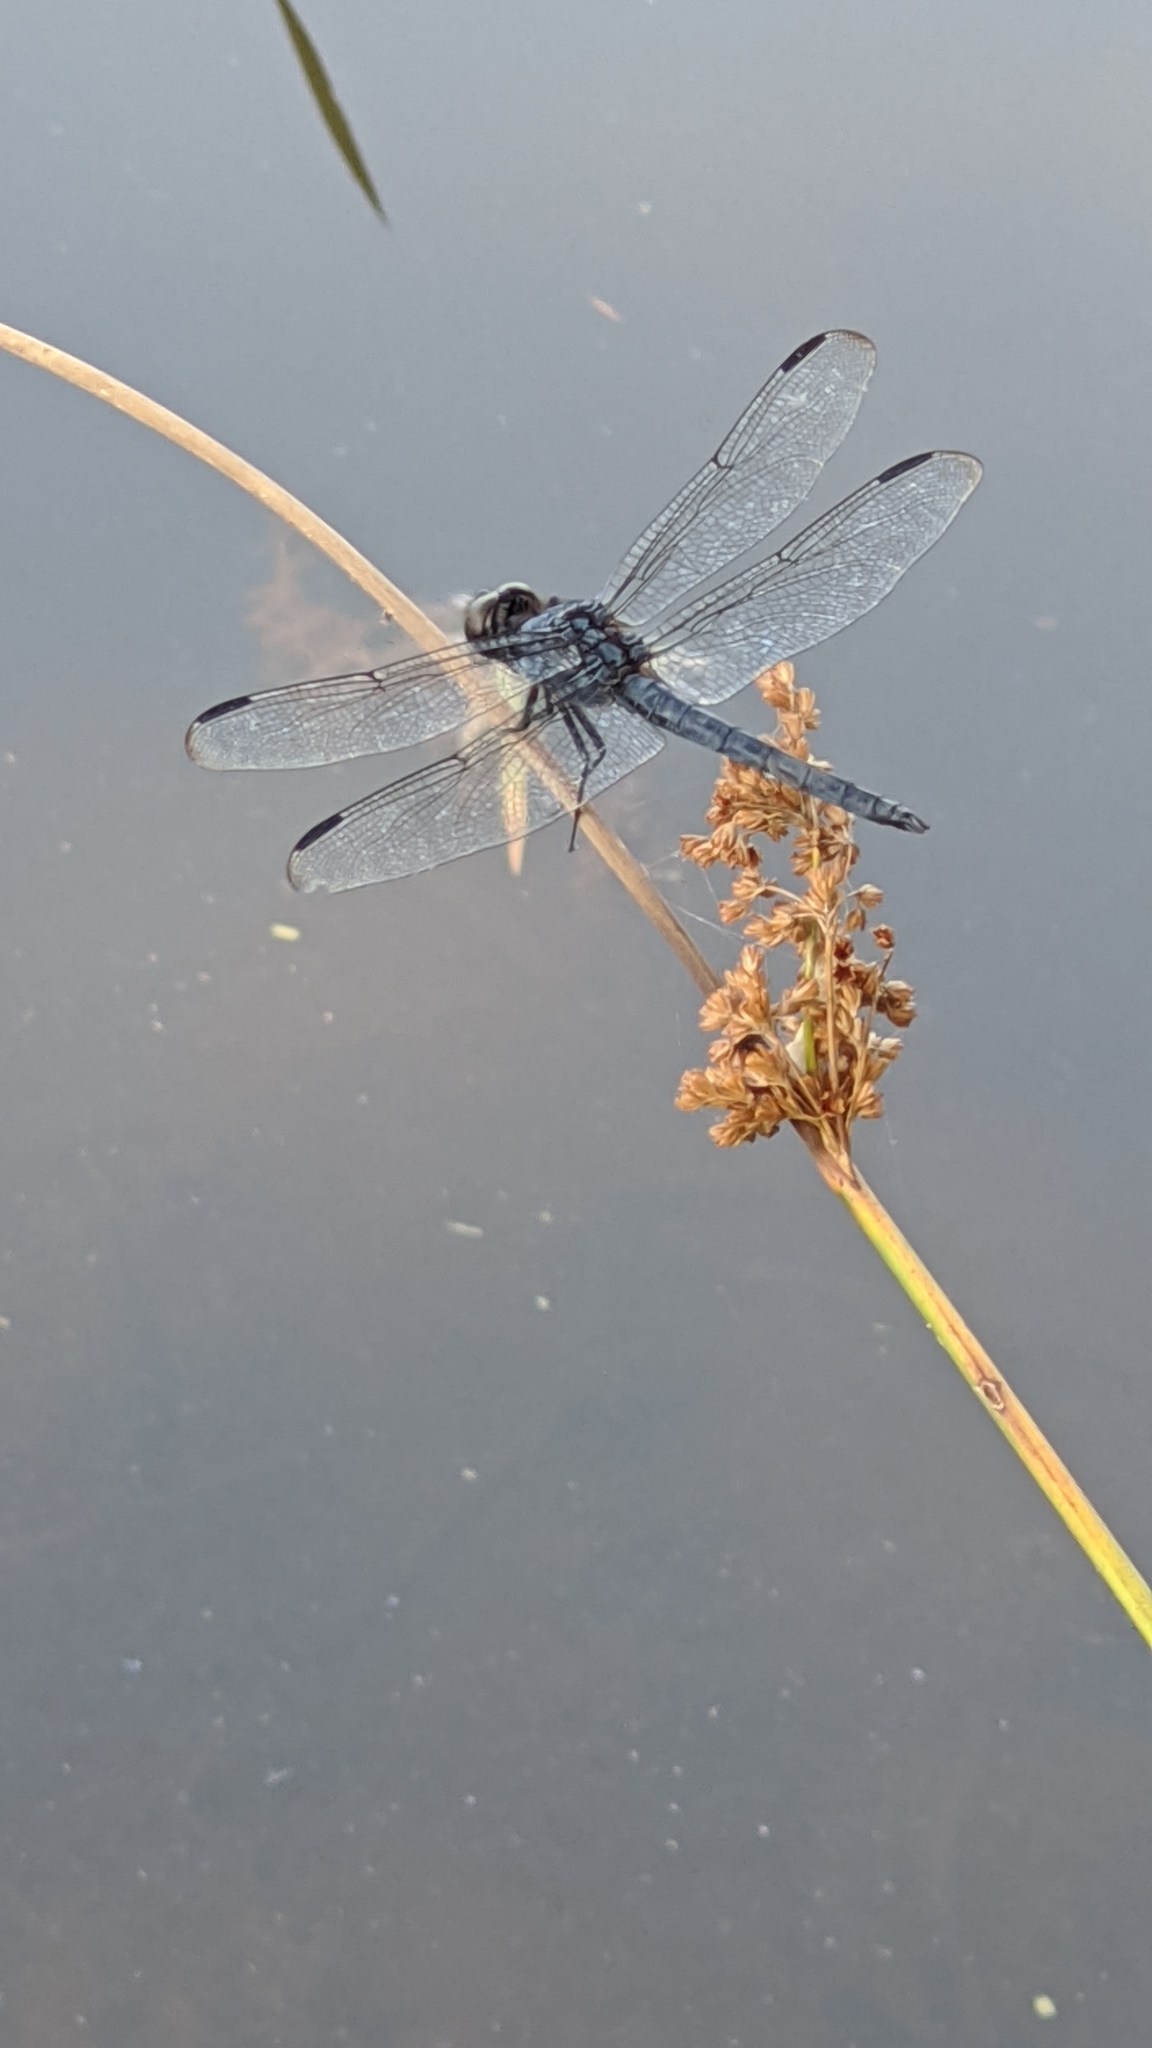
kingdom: Animalia
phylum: Arthropoda
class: Insecta
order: Odonata
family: Libellulidae
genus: Libellula
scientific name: Libellula incesta
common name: Slaty skimmer
